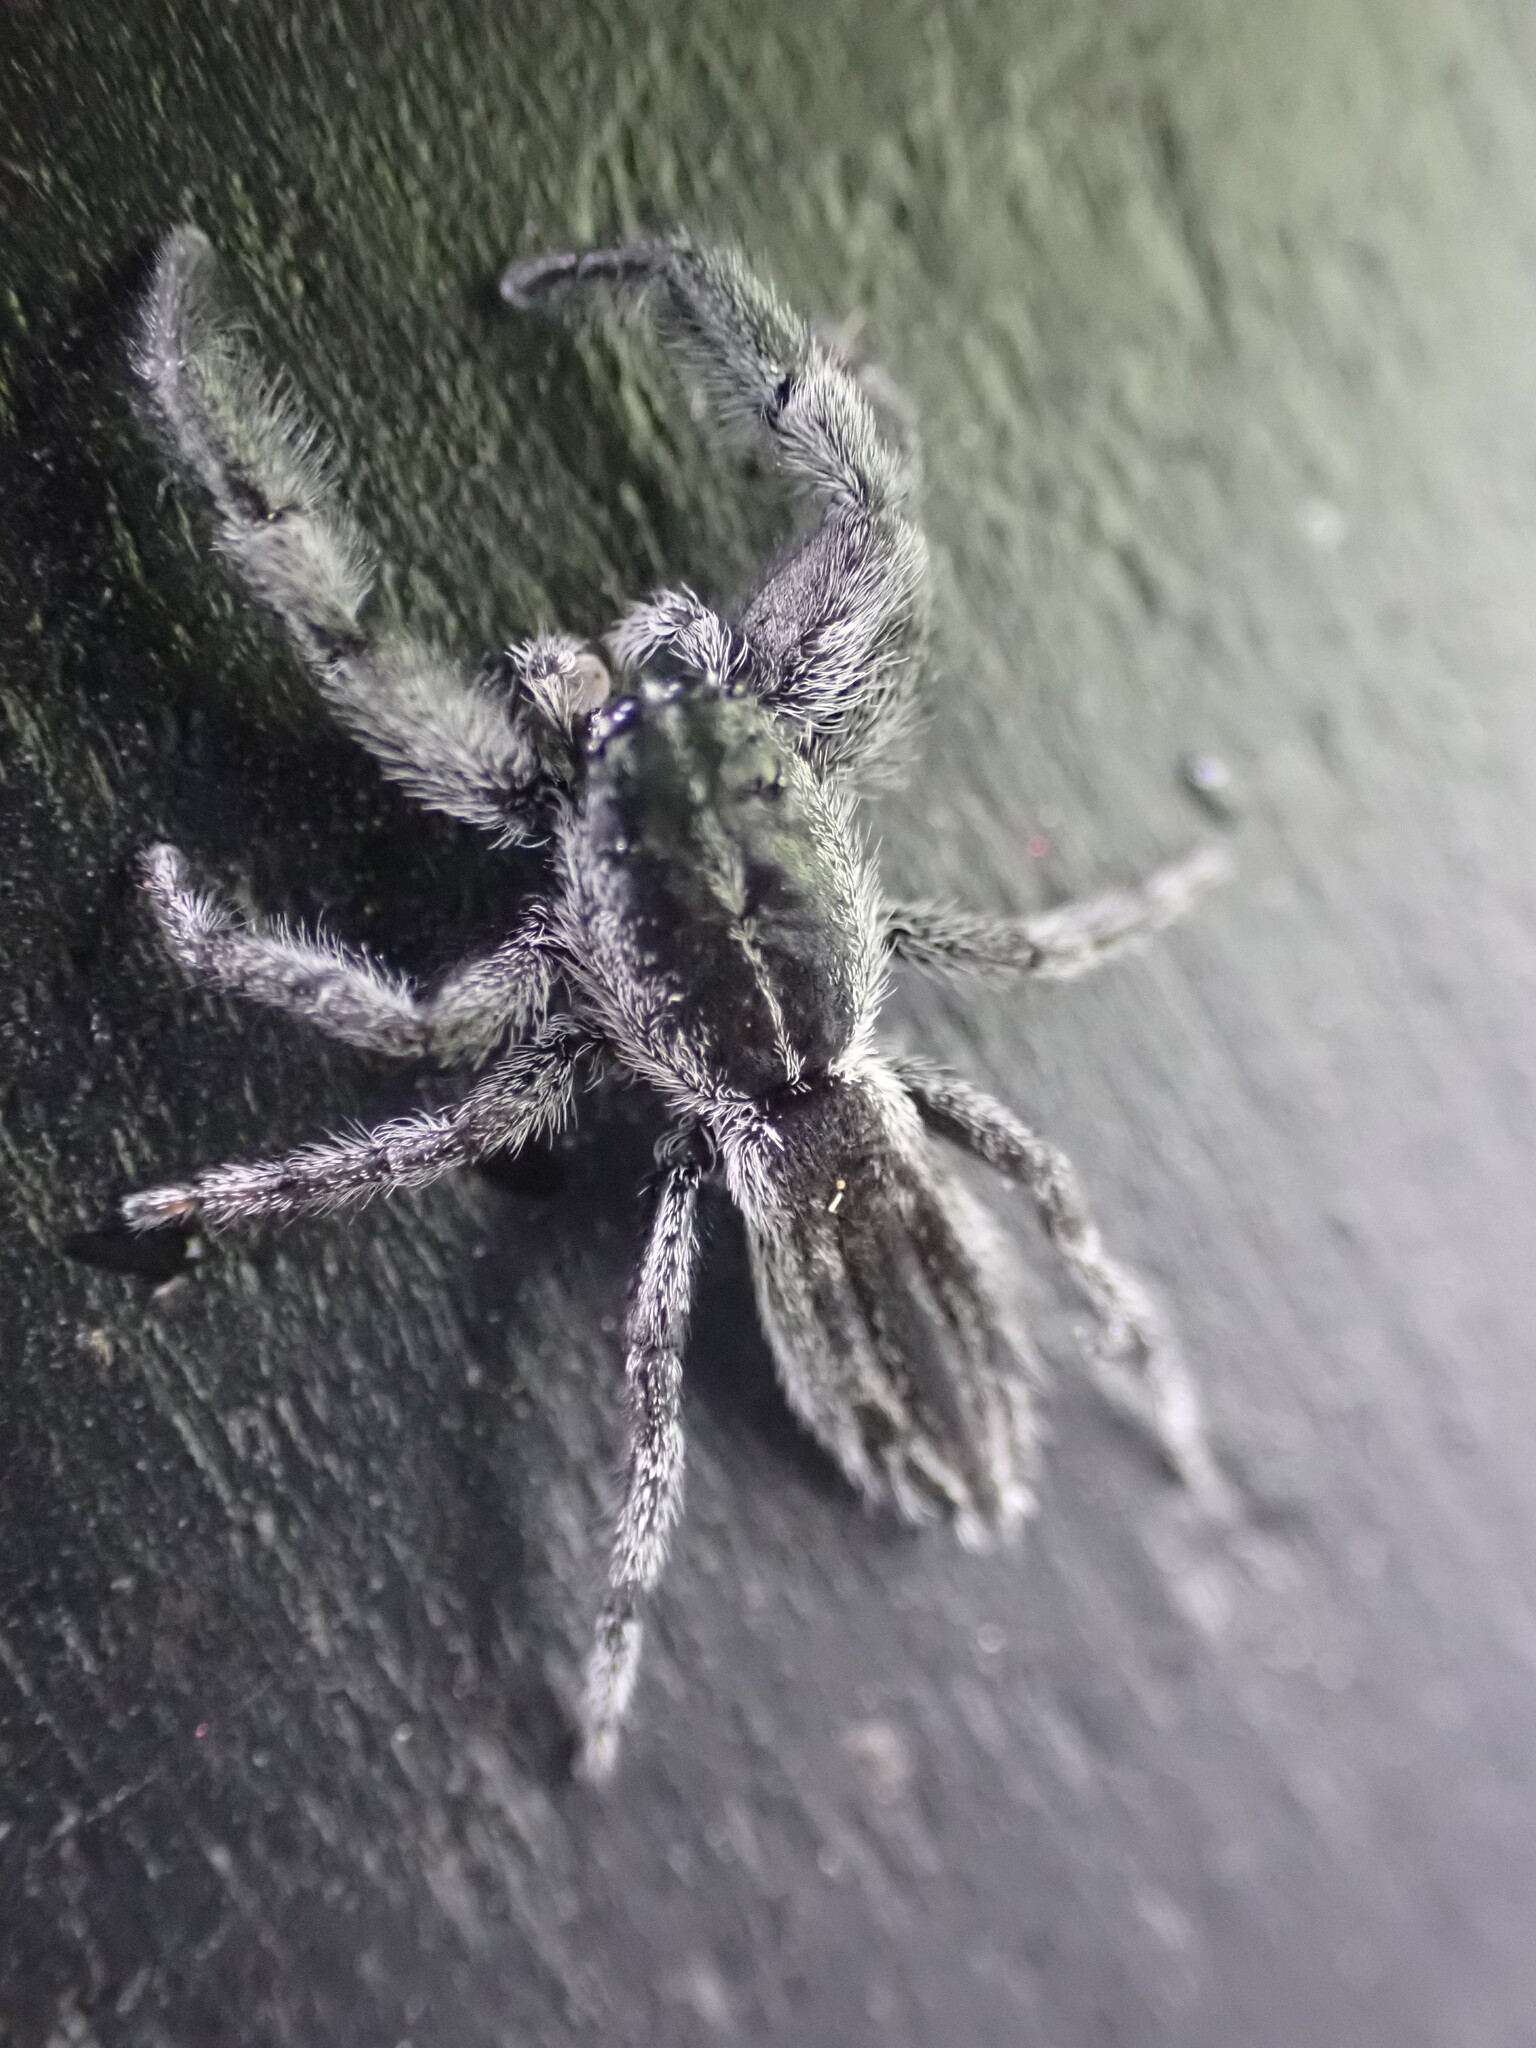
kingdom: Animalia
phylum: Arthropoda
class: Arachnida
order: Araneae
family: Salticidae
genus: Holoplatys
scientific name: Holoplatys apressus
